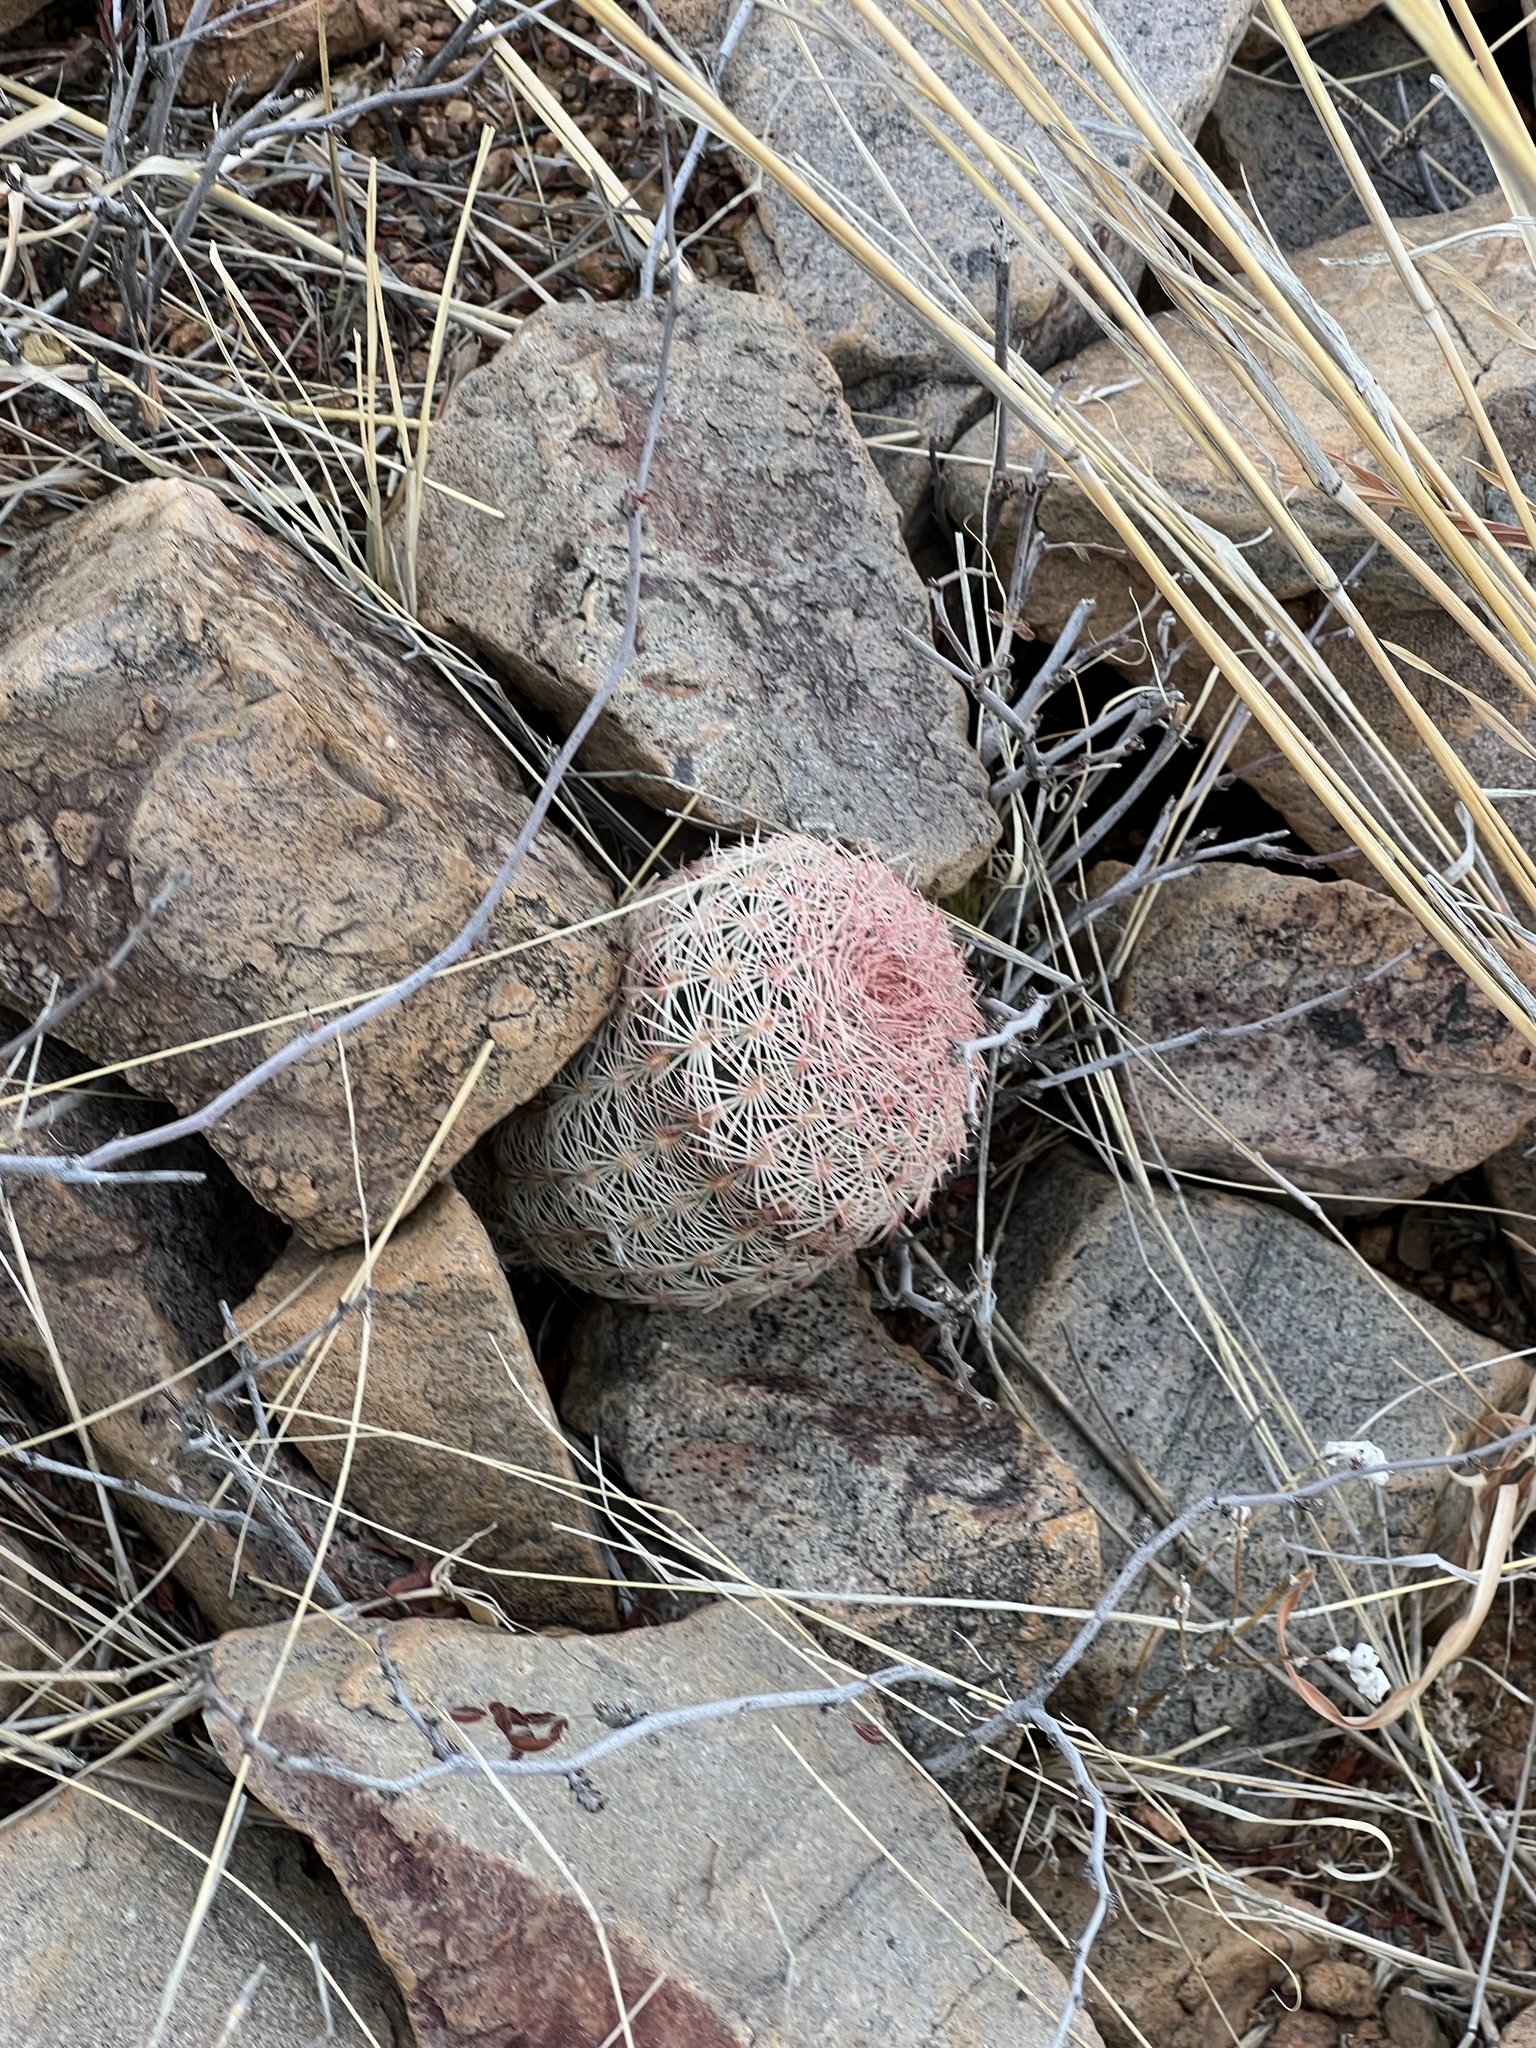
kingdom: Plantae
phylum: Tracheophyta
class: Magnoliopsida
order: Caryophyllales
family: Cactaceae
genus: Echinocereus
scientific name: Echinocereus rigidissimus
